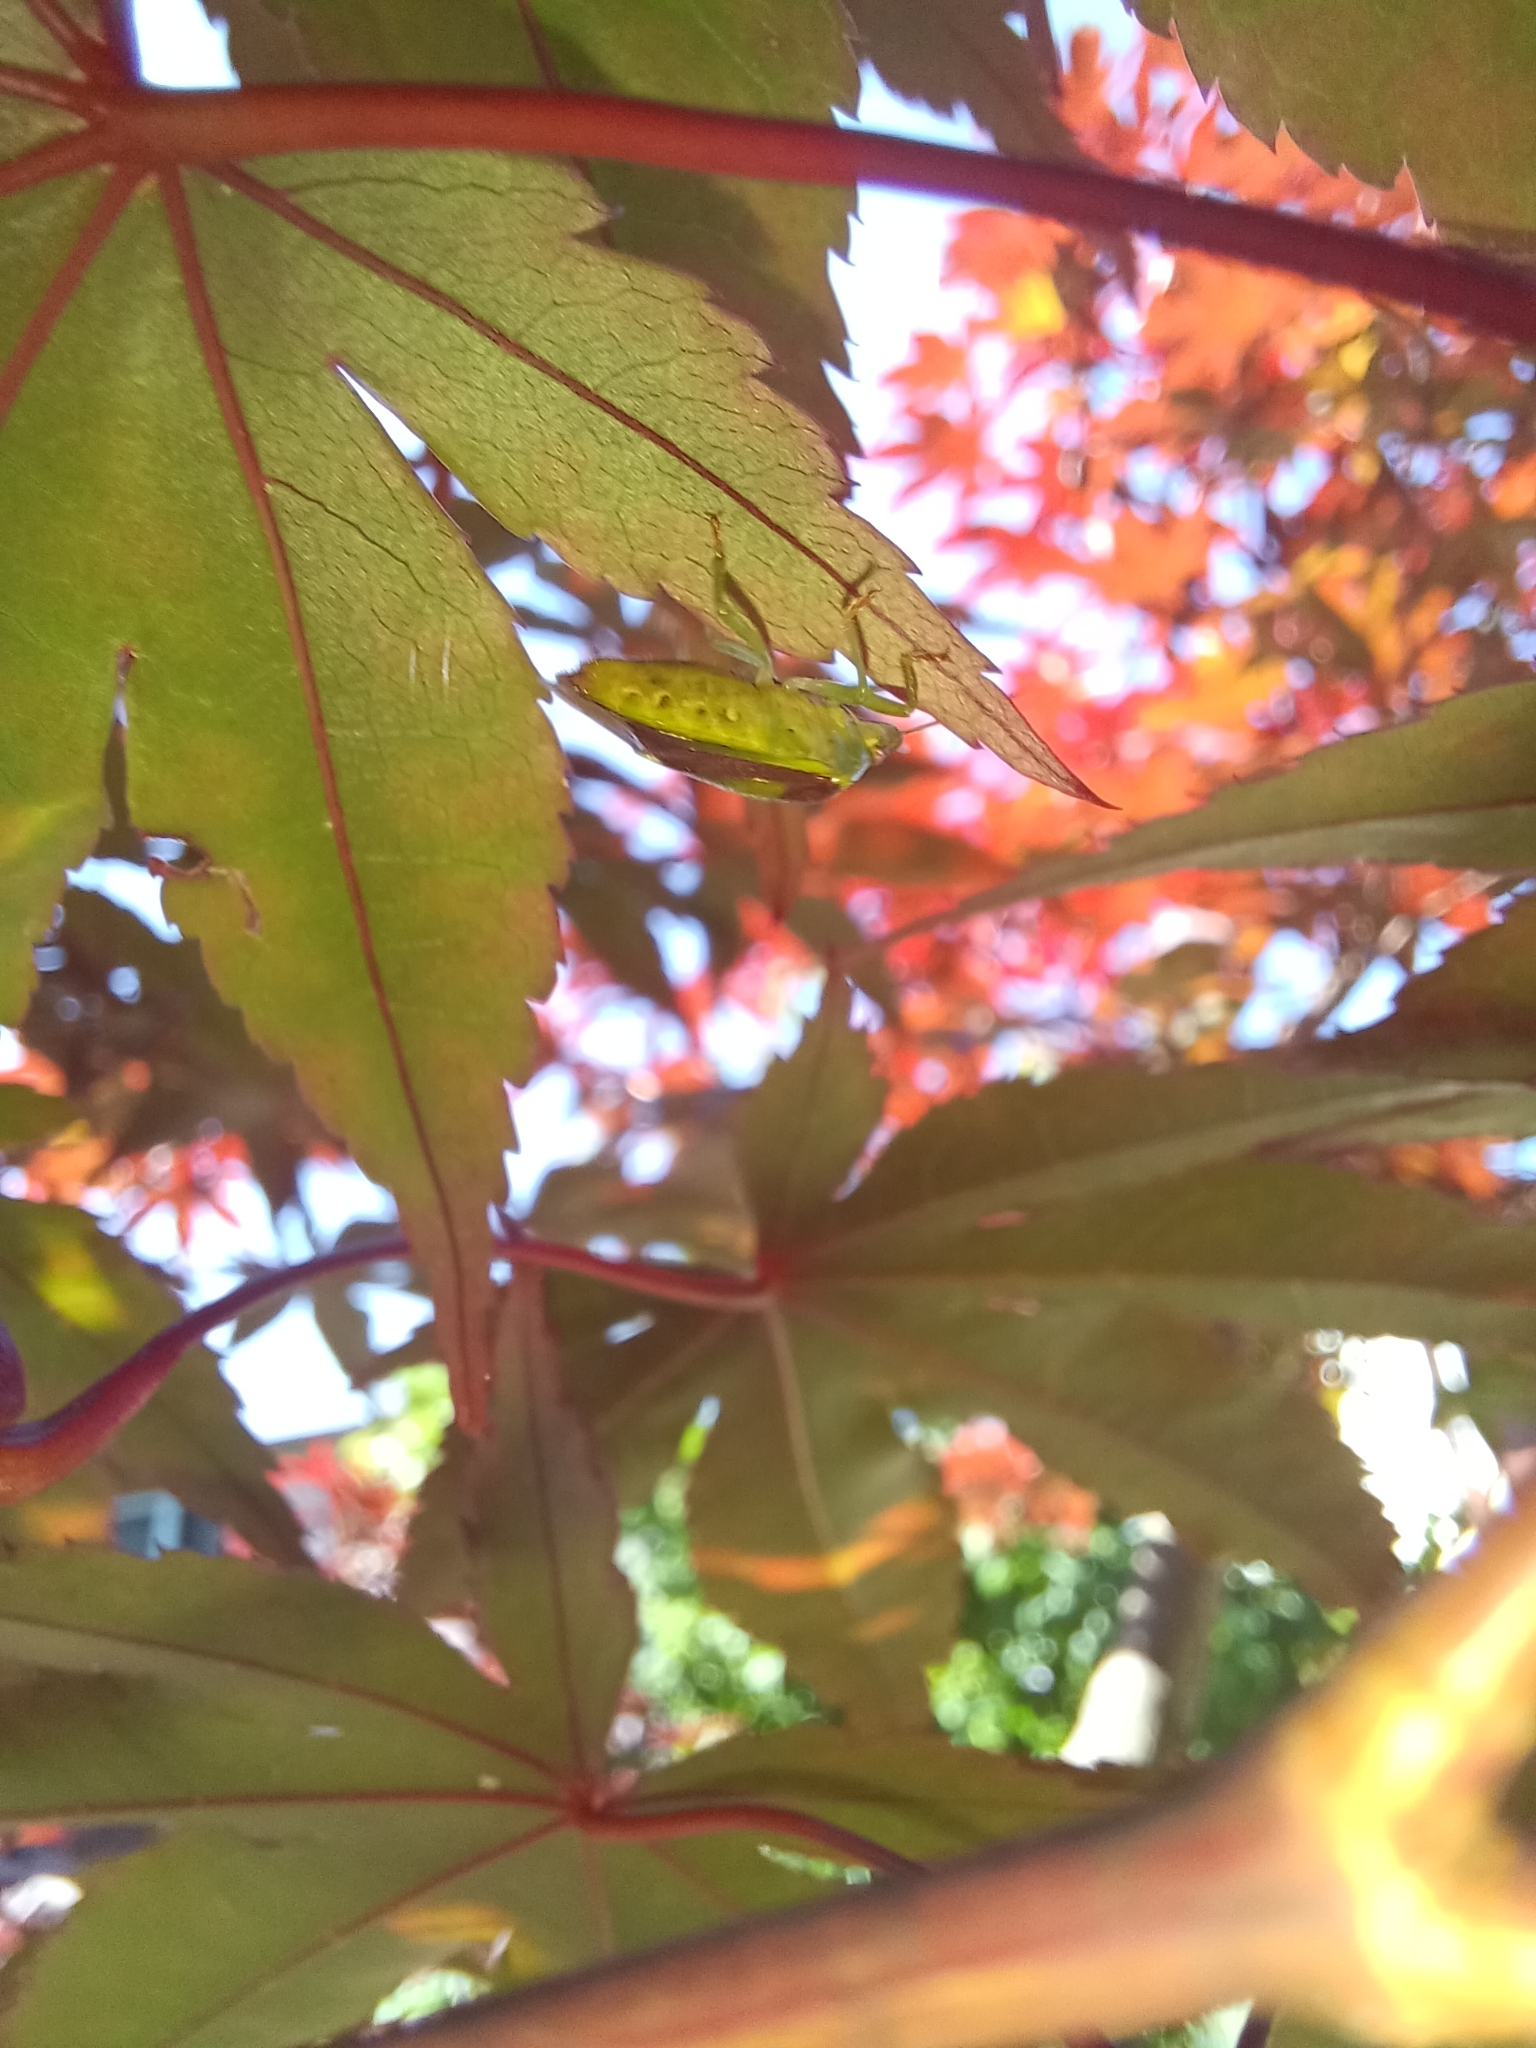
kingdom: Animalia
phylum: Arthropoda
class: Insecta
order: Hemiptera
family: Pentatomidae
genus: Banasa
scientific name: Banasa dimidiata
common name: Green burgundy stink bug
